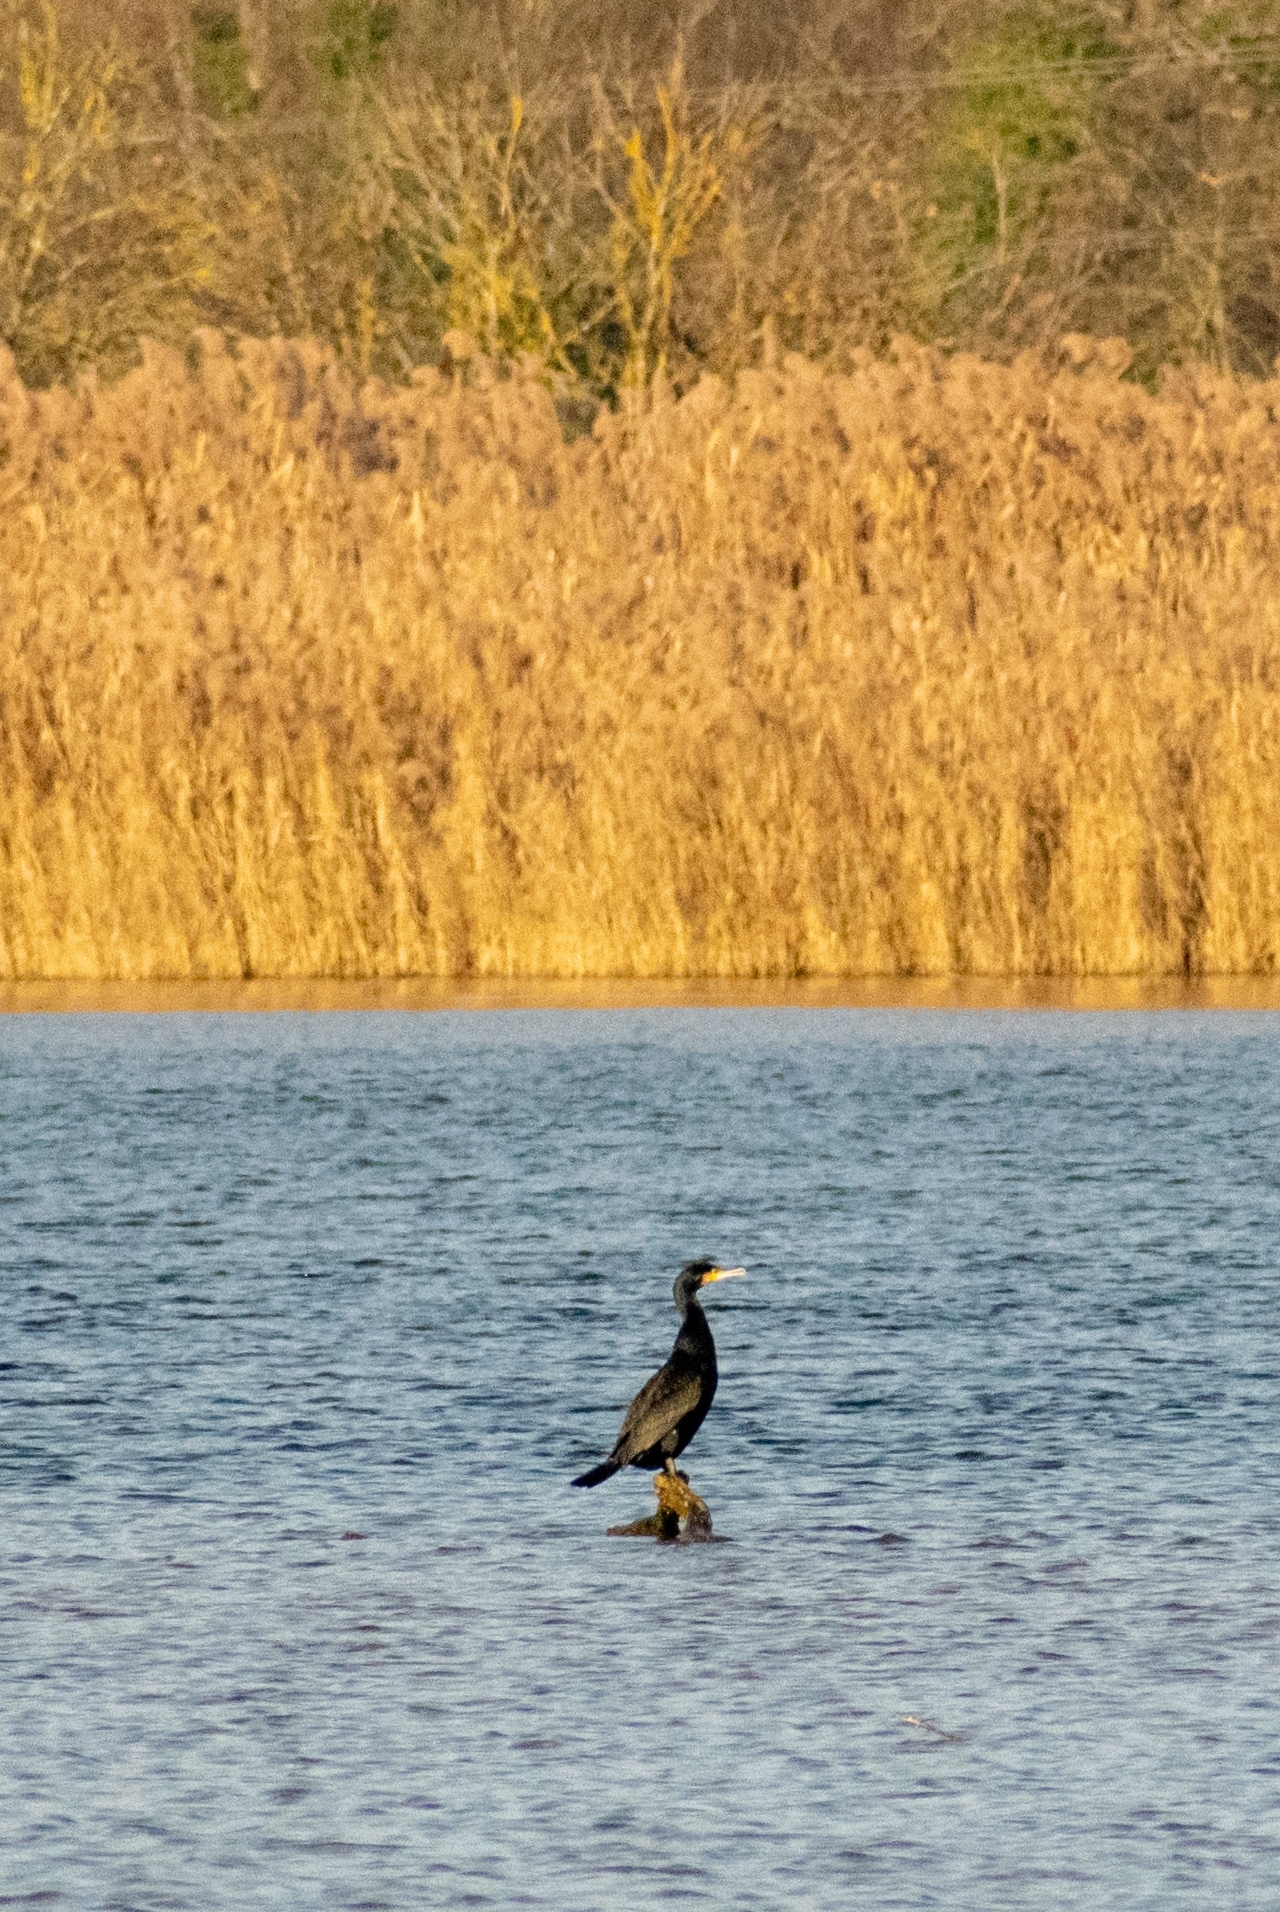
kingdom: Animalia
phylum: Chordata
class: Aves
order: Suliformes
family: Phalacrocoracidae
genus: Phalacrocorax
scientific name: Phalacrocorax carbo
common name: Great cormorant
